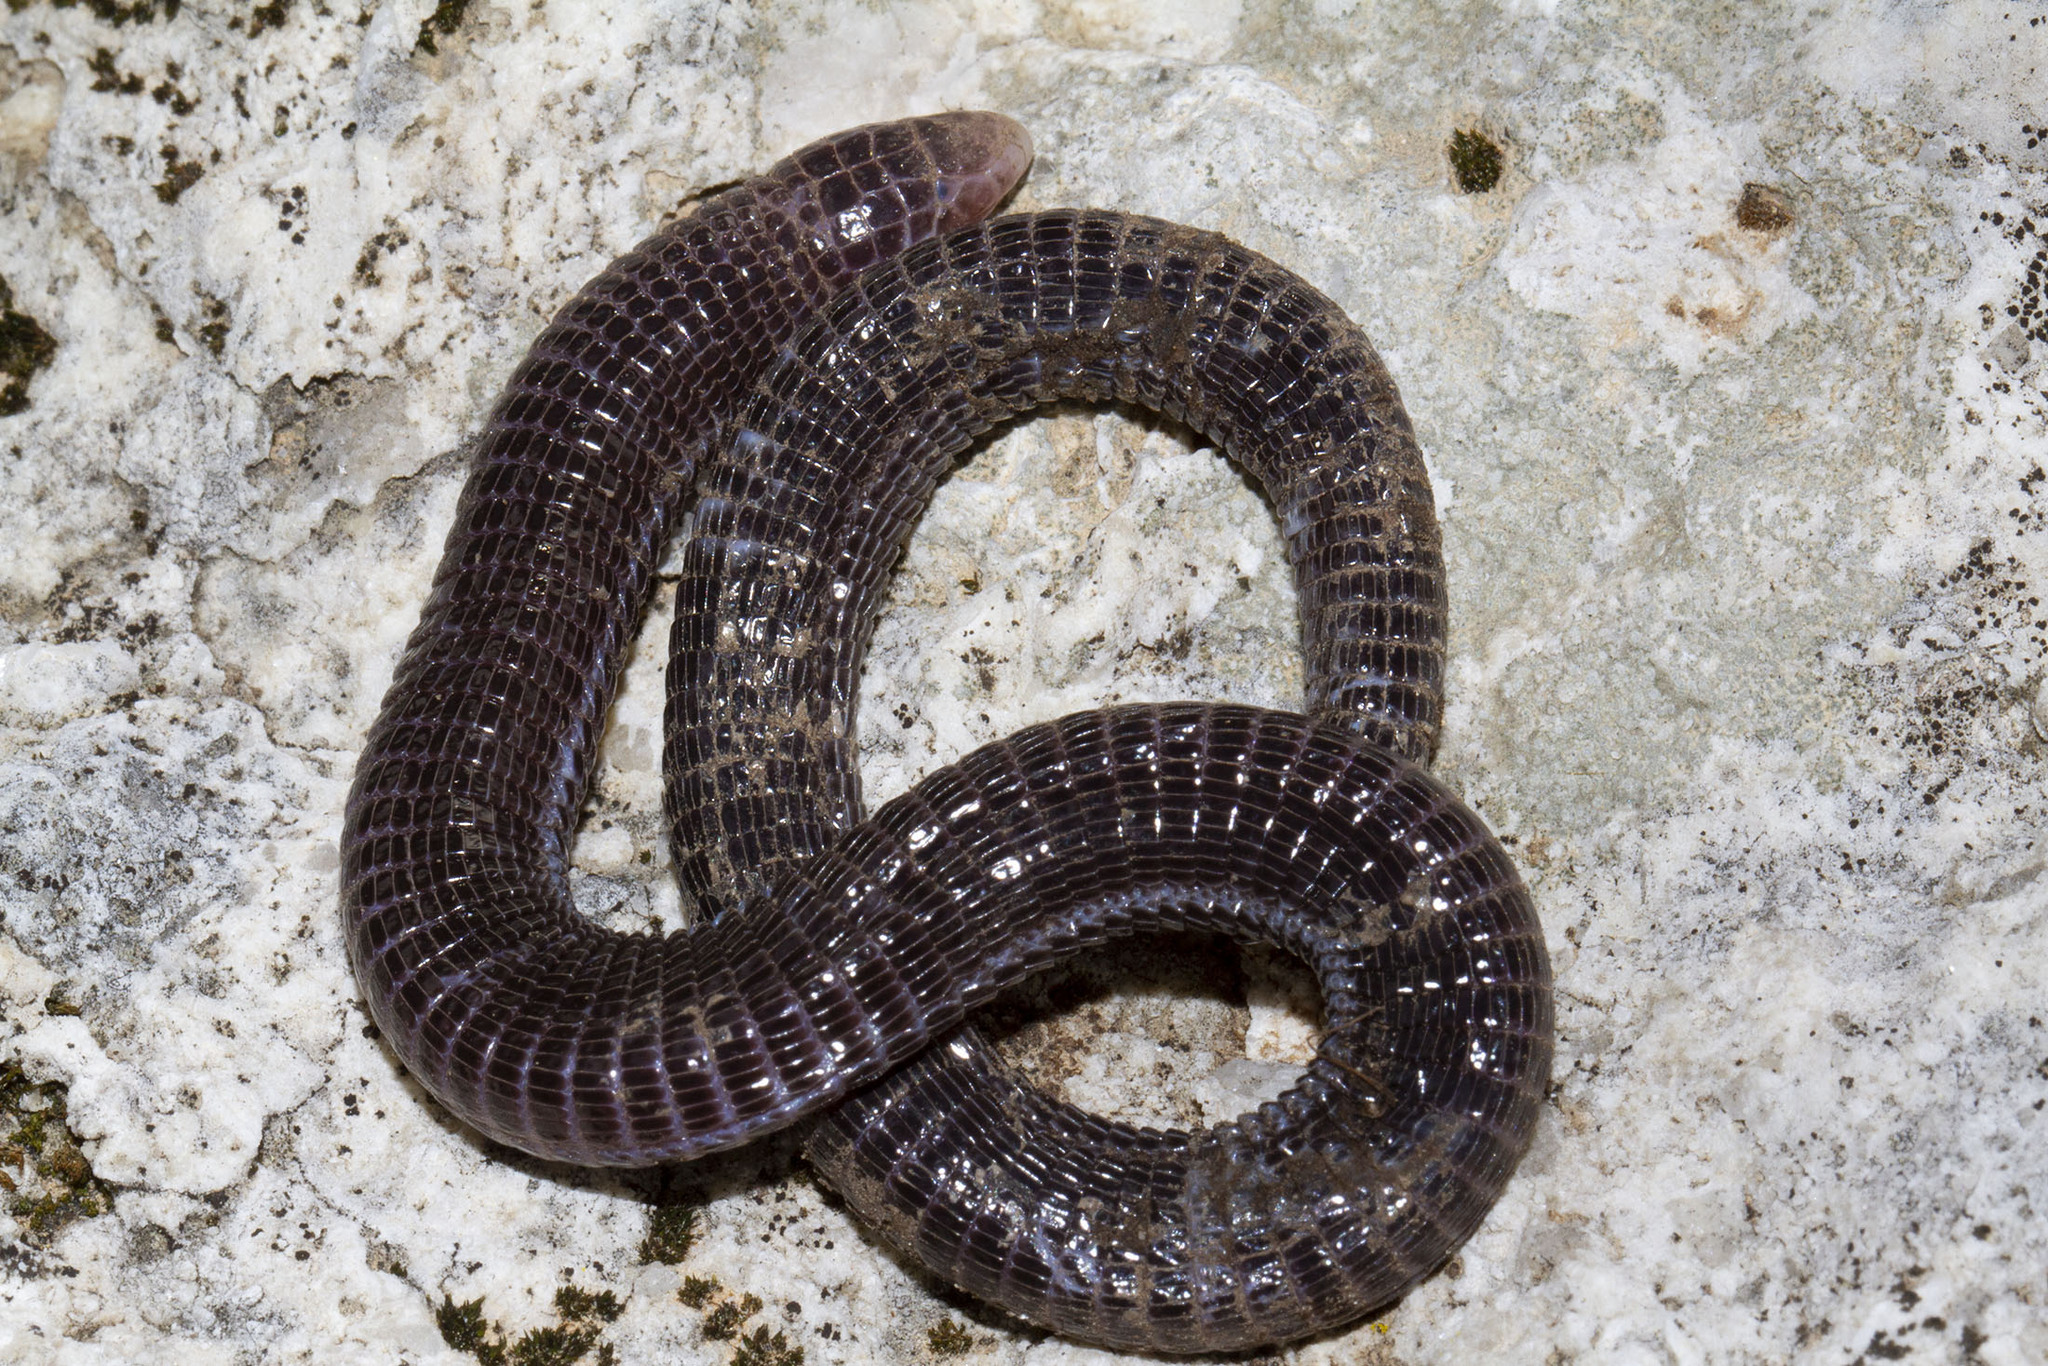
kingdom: Animalia
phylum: Chordata
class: Squamata
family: Blanidae
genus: Blanus
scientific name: Blanus strauchi
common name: Turkish worm lizard
